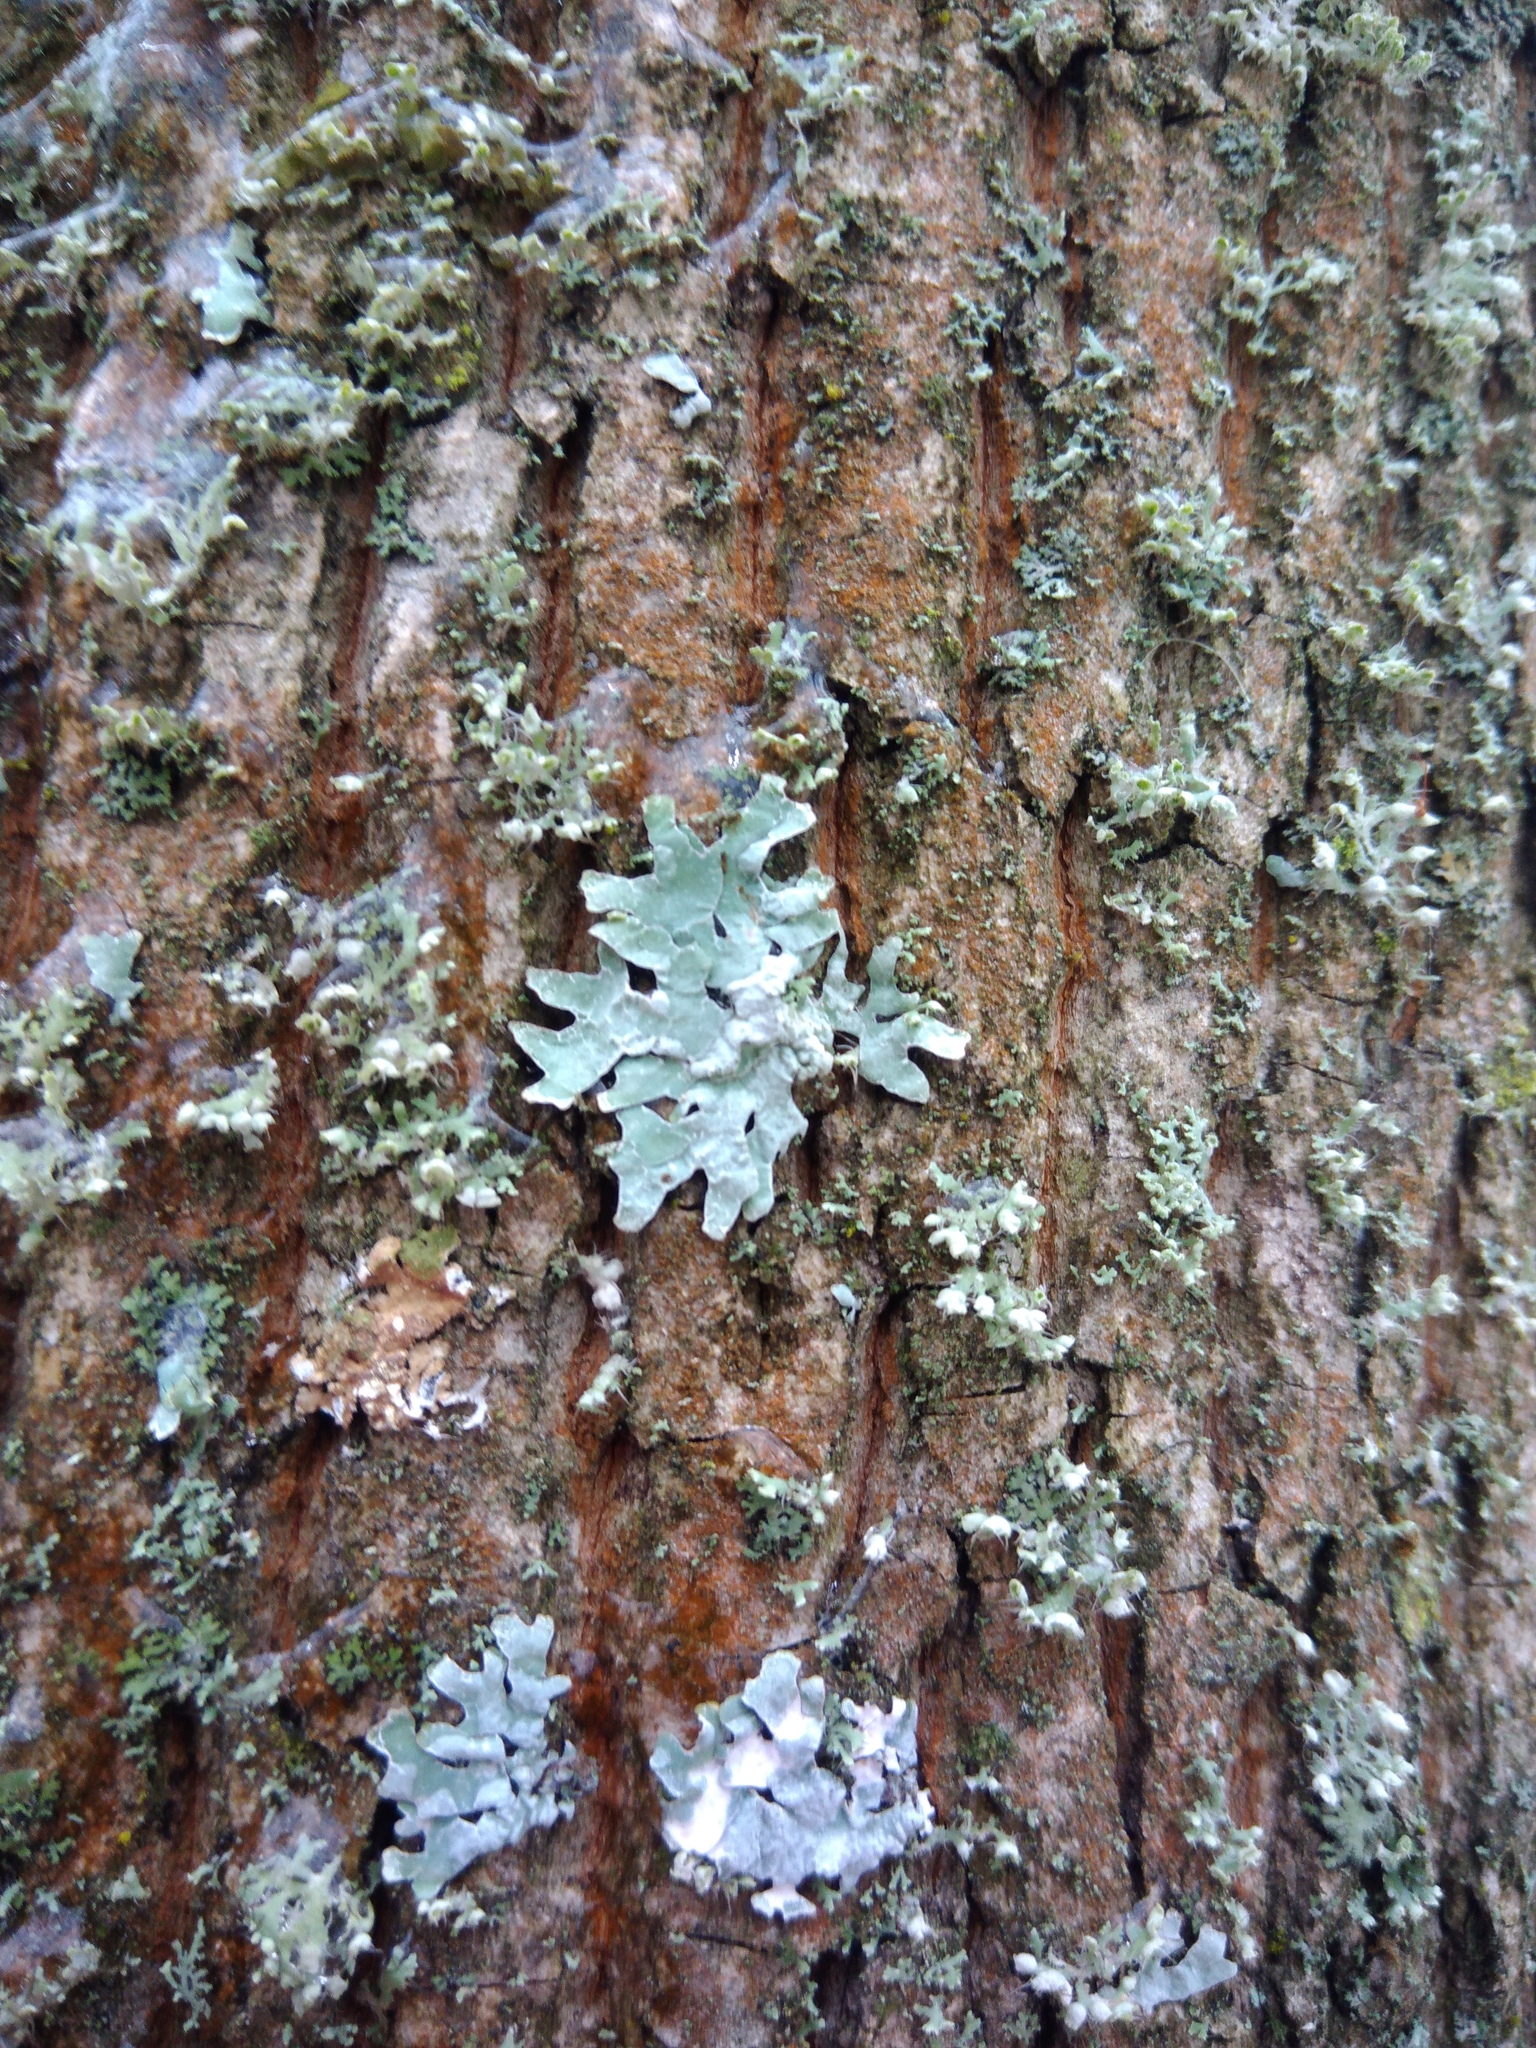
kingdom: Fungi
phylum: Ascomycota
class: Lecanoromycetes
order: Lecanorales
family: Parmeliaceae
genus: Parmelia
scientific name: Parmelia sulcata
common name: Netted shield lichen
